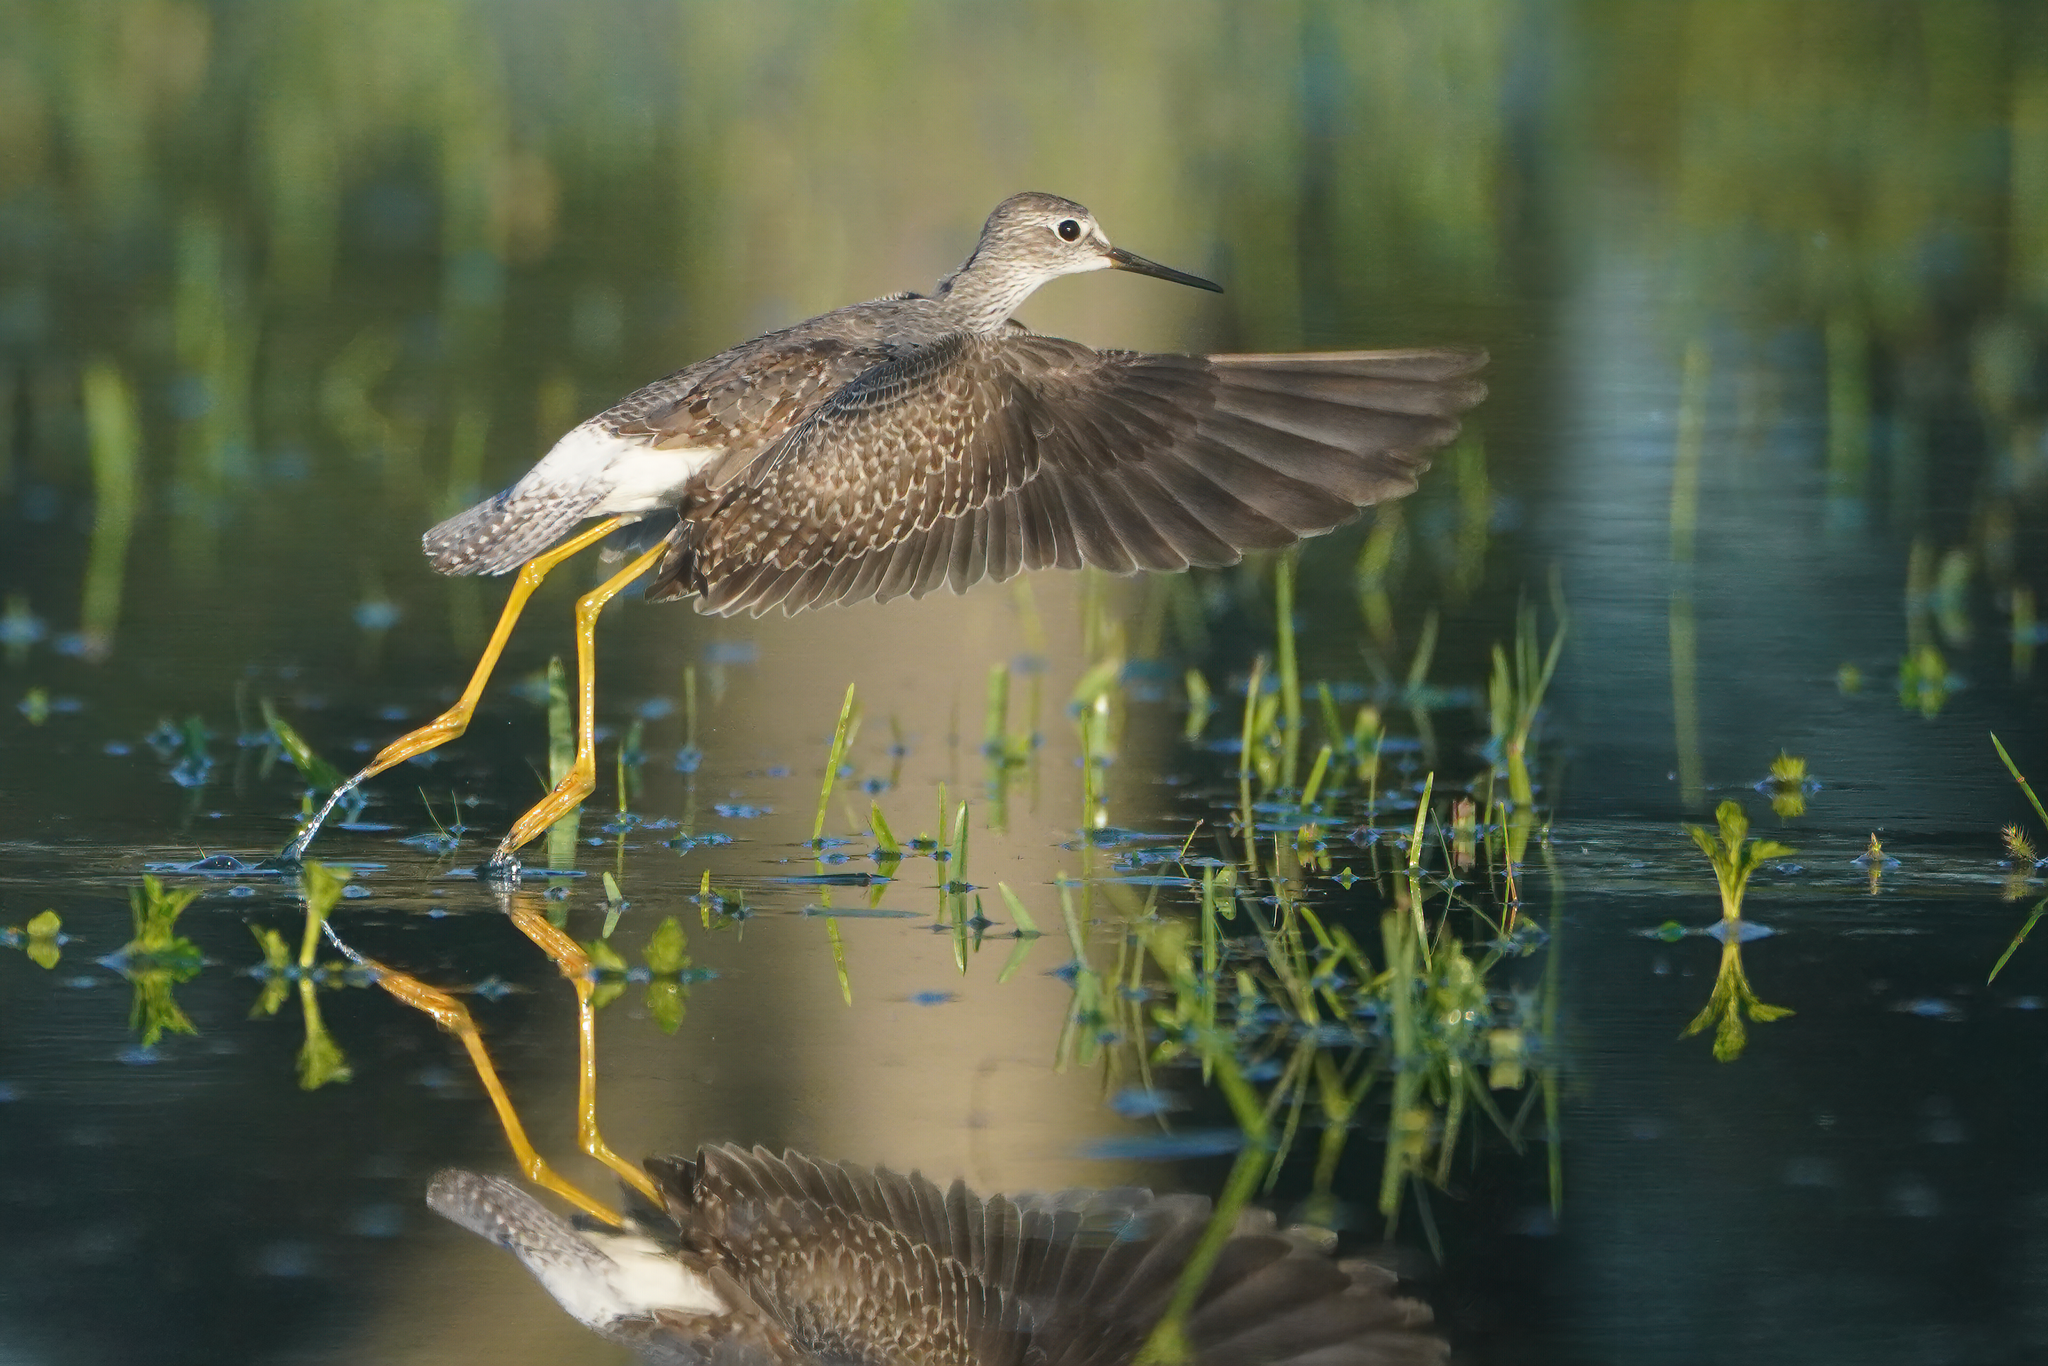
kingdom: Animalia
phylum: Chordata
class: Aves
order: Charadriiformes
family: Scolopacidae
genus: Tringa
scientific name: Tringa flavipes
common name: Lesser yellowlegs
